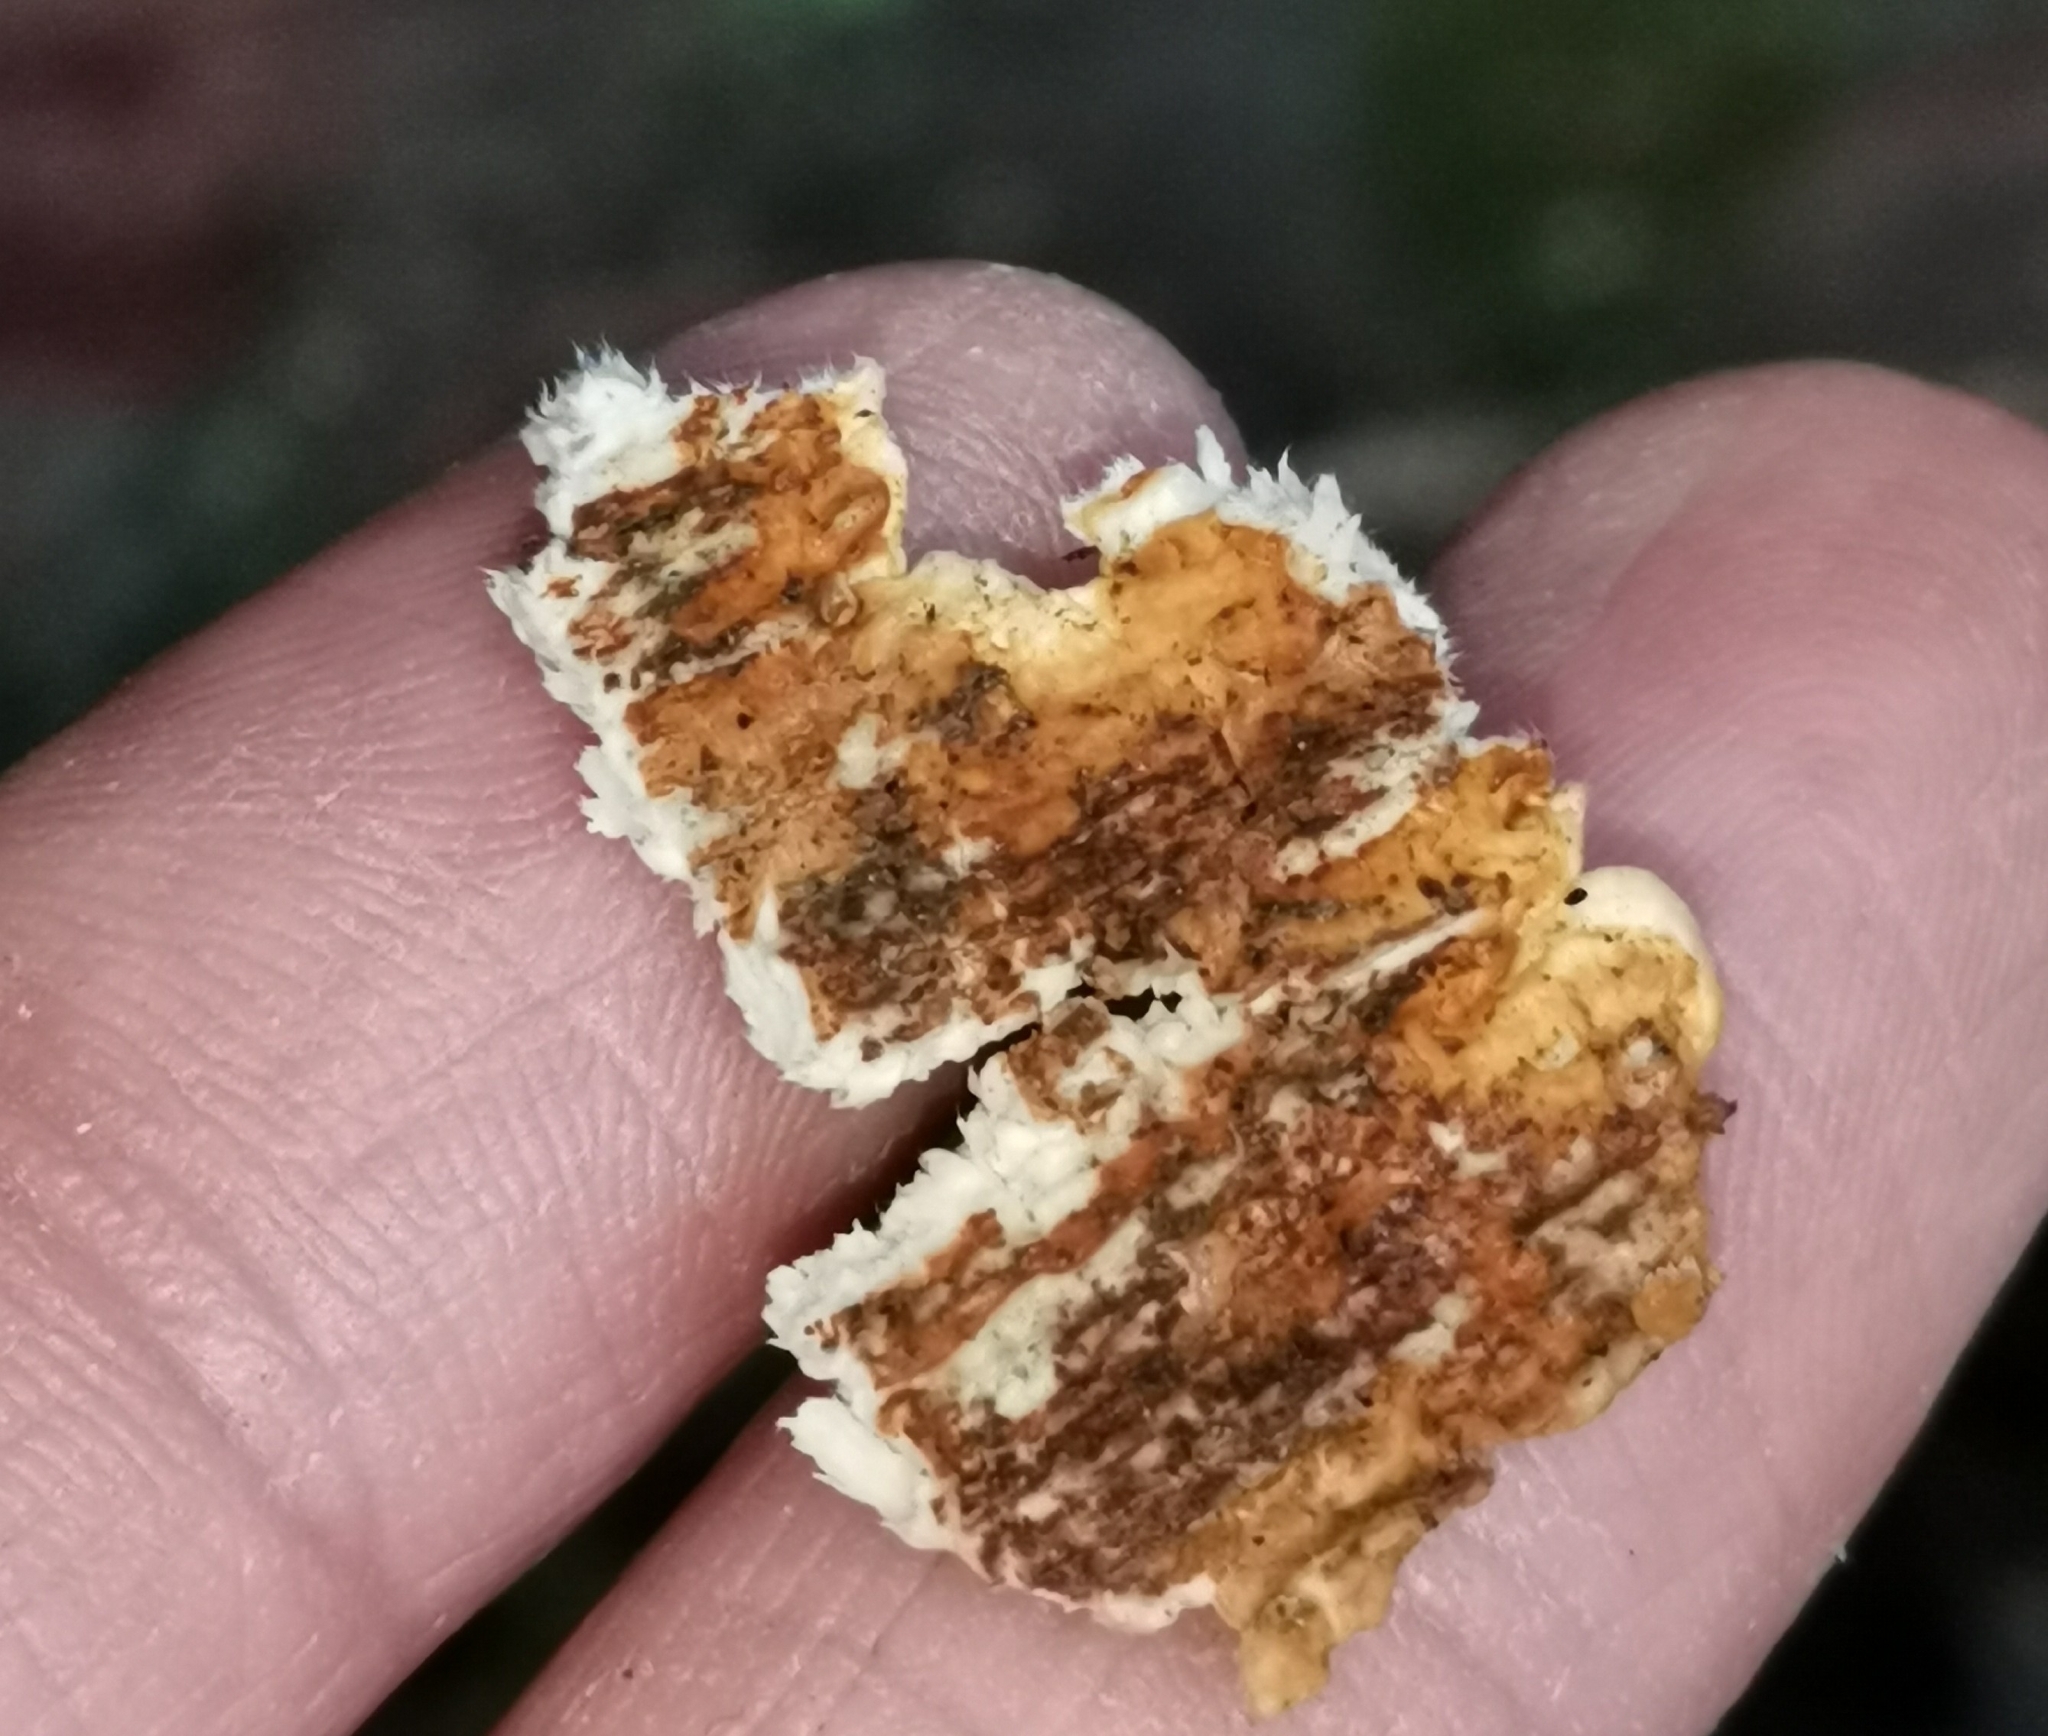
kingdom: Fungi
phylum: Basidiomycota
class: Agaricomycetes
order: Polyporales
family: Fomitopsidaceae
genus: Neoantrodia
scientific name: Neoantrodia serialis
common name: Serried porecrust
